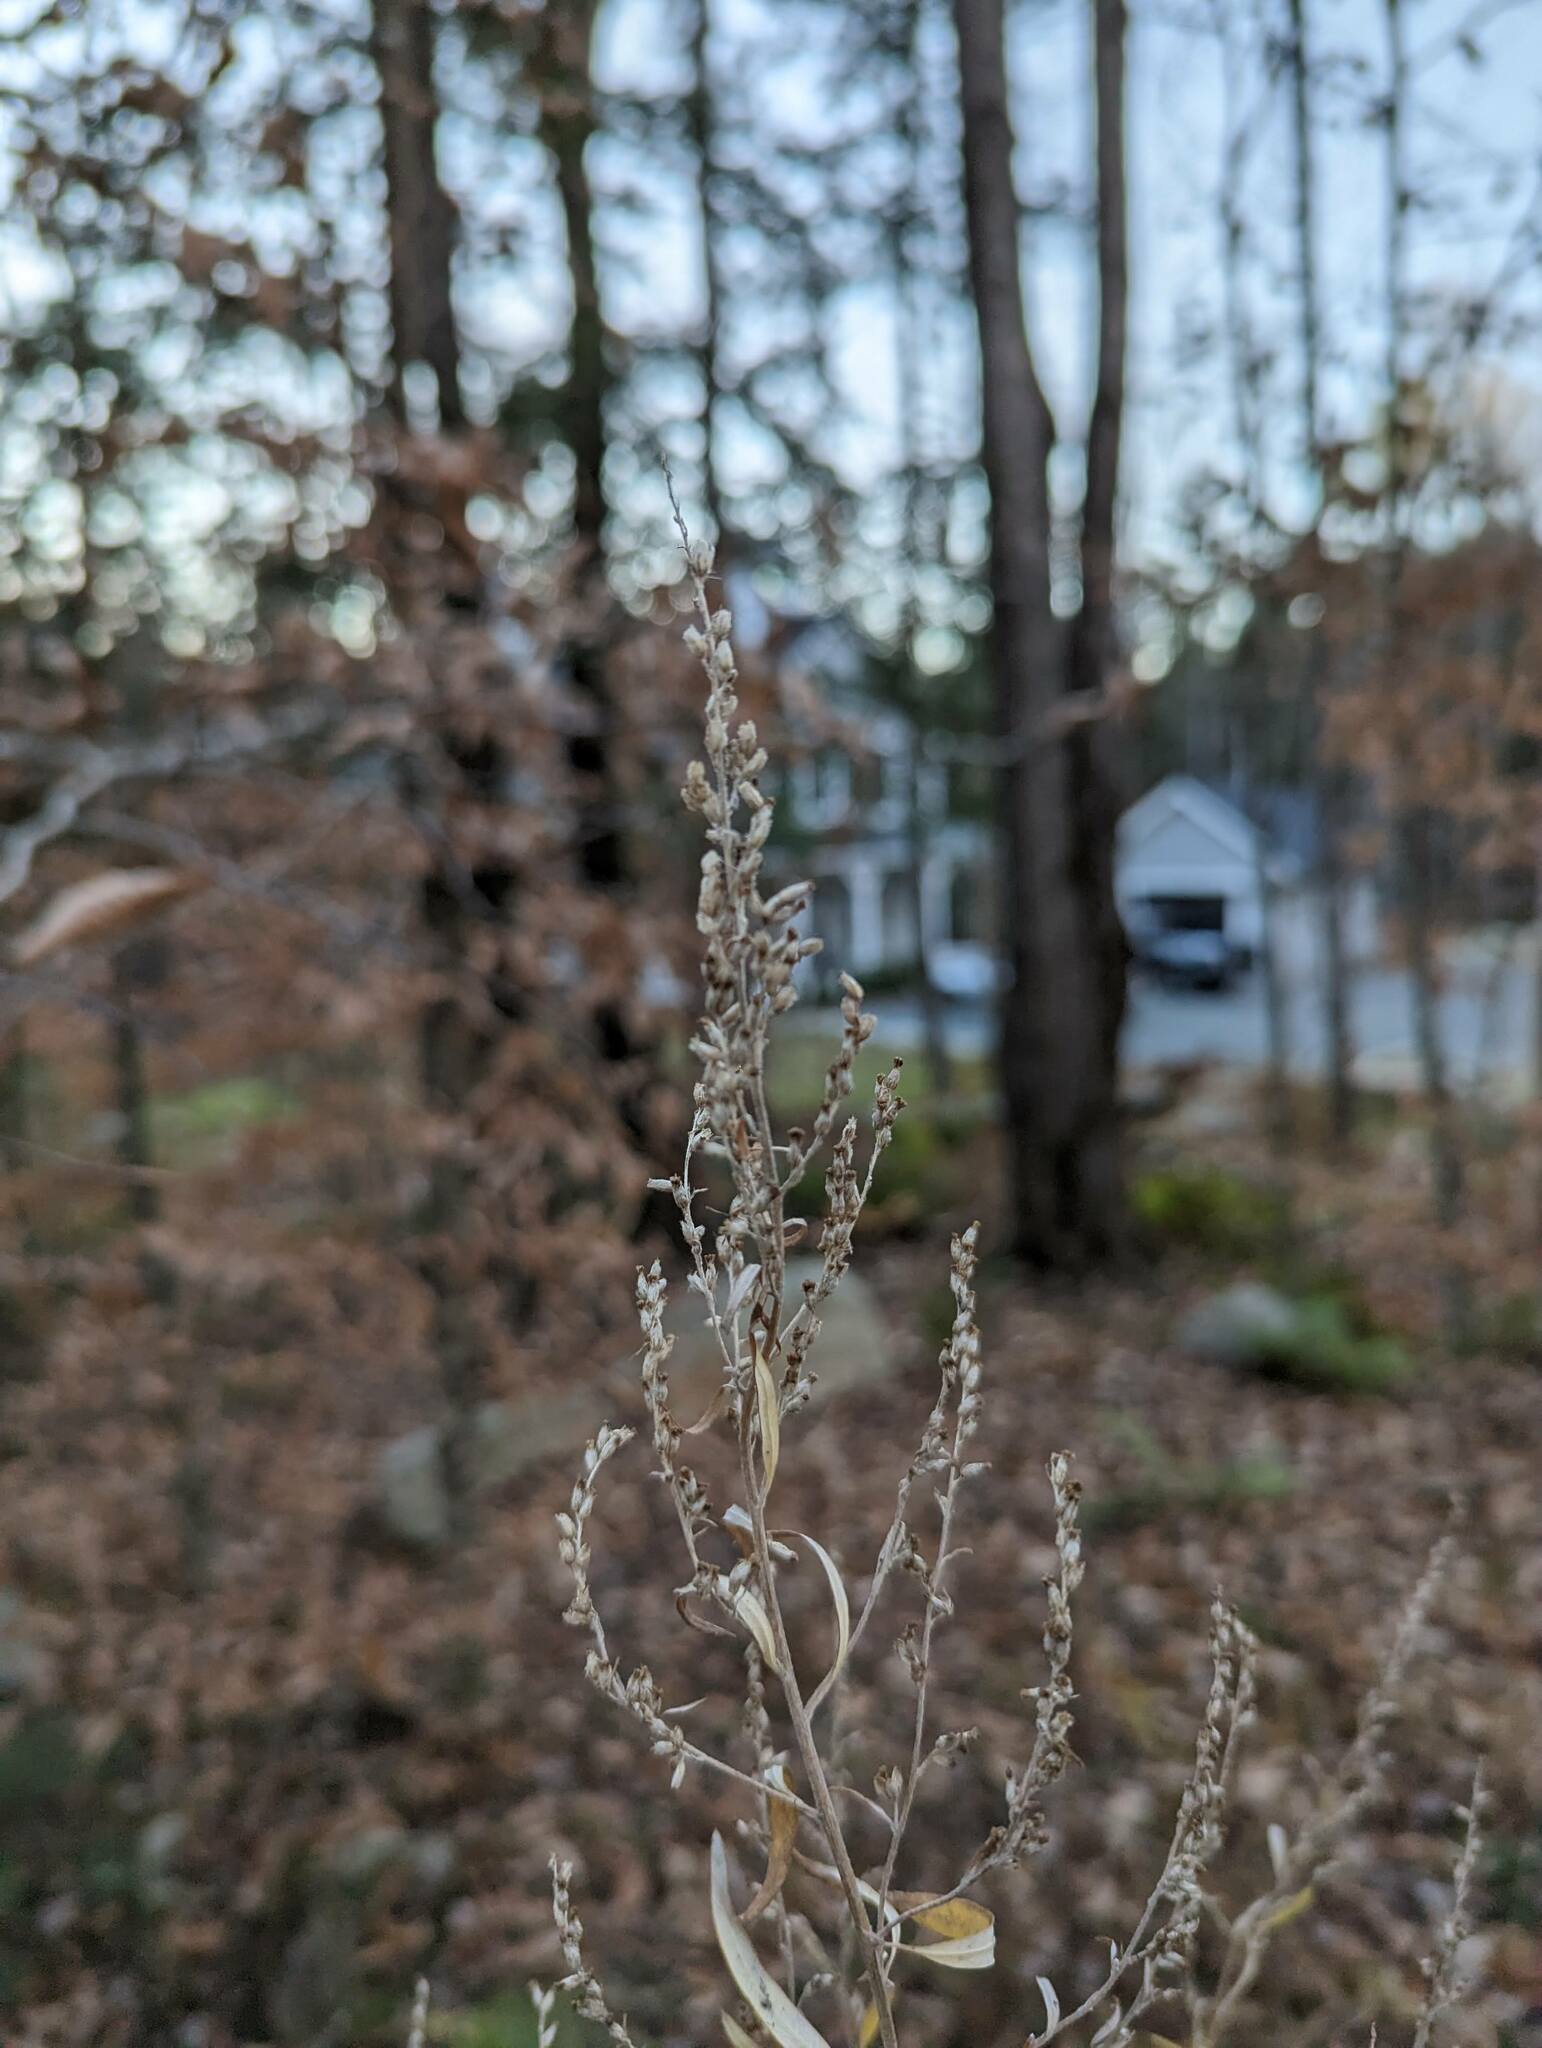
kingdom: Plantae
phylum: Tracheophyta
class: Magnoliopsida
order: Asterales
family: Asteraceae
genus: Artemisia
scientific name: Artemisia vulgaris
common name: Mugwort
